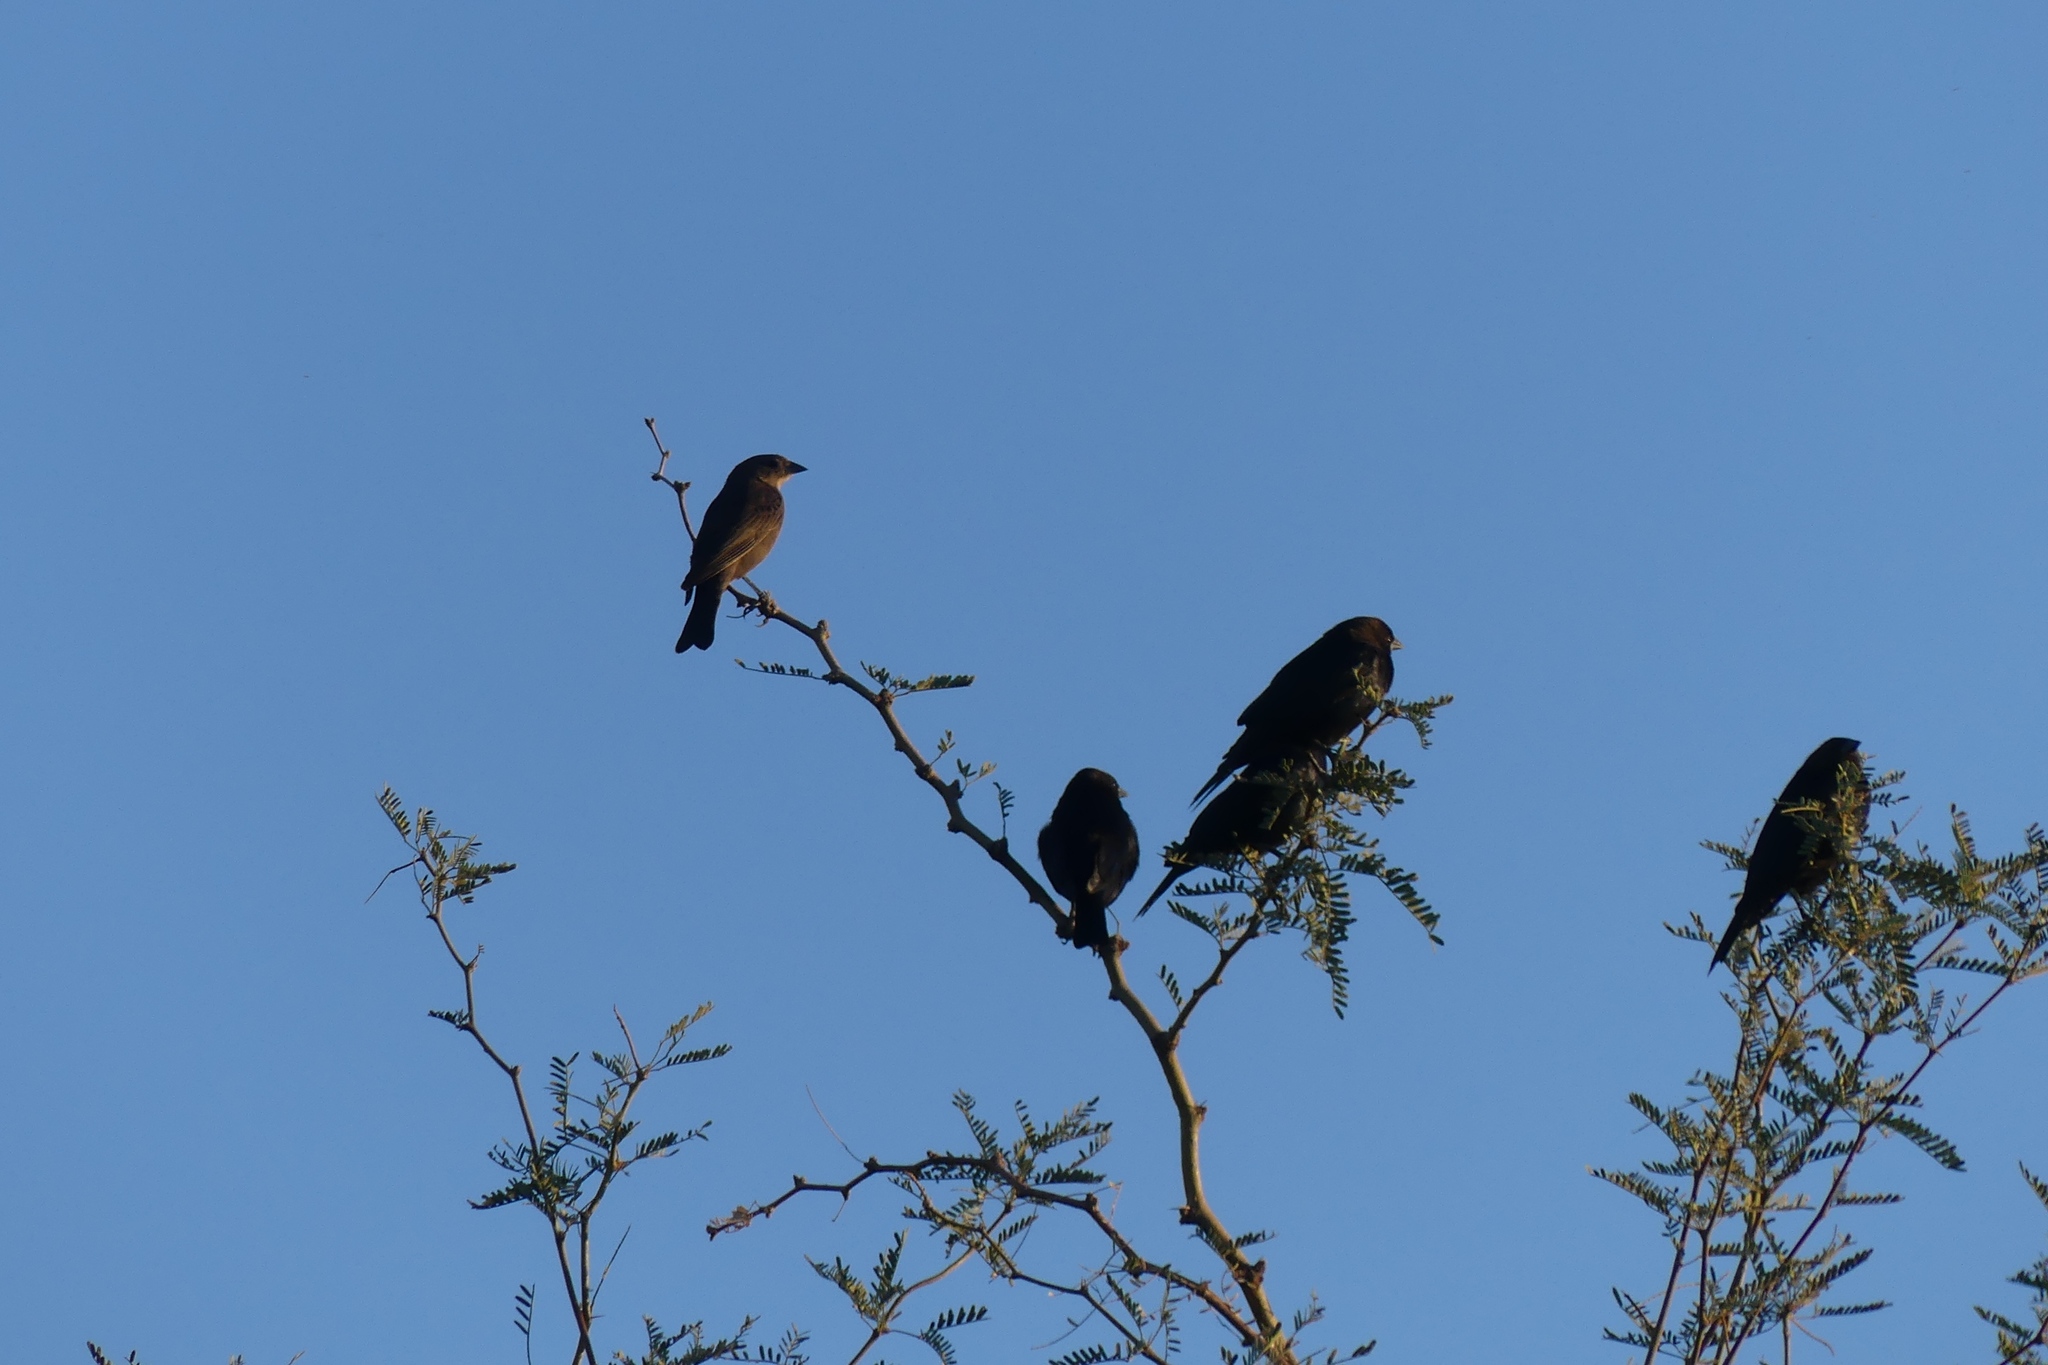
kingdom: Animalia
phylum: Chordata
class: Aves
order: Passeriformes
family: Icteridae
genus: Molothrus
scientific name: Molothrus ater
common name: Brown-headed cowbird
